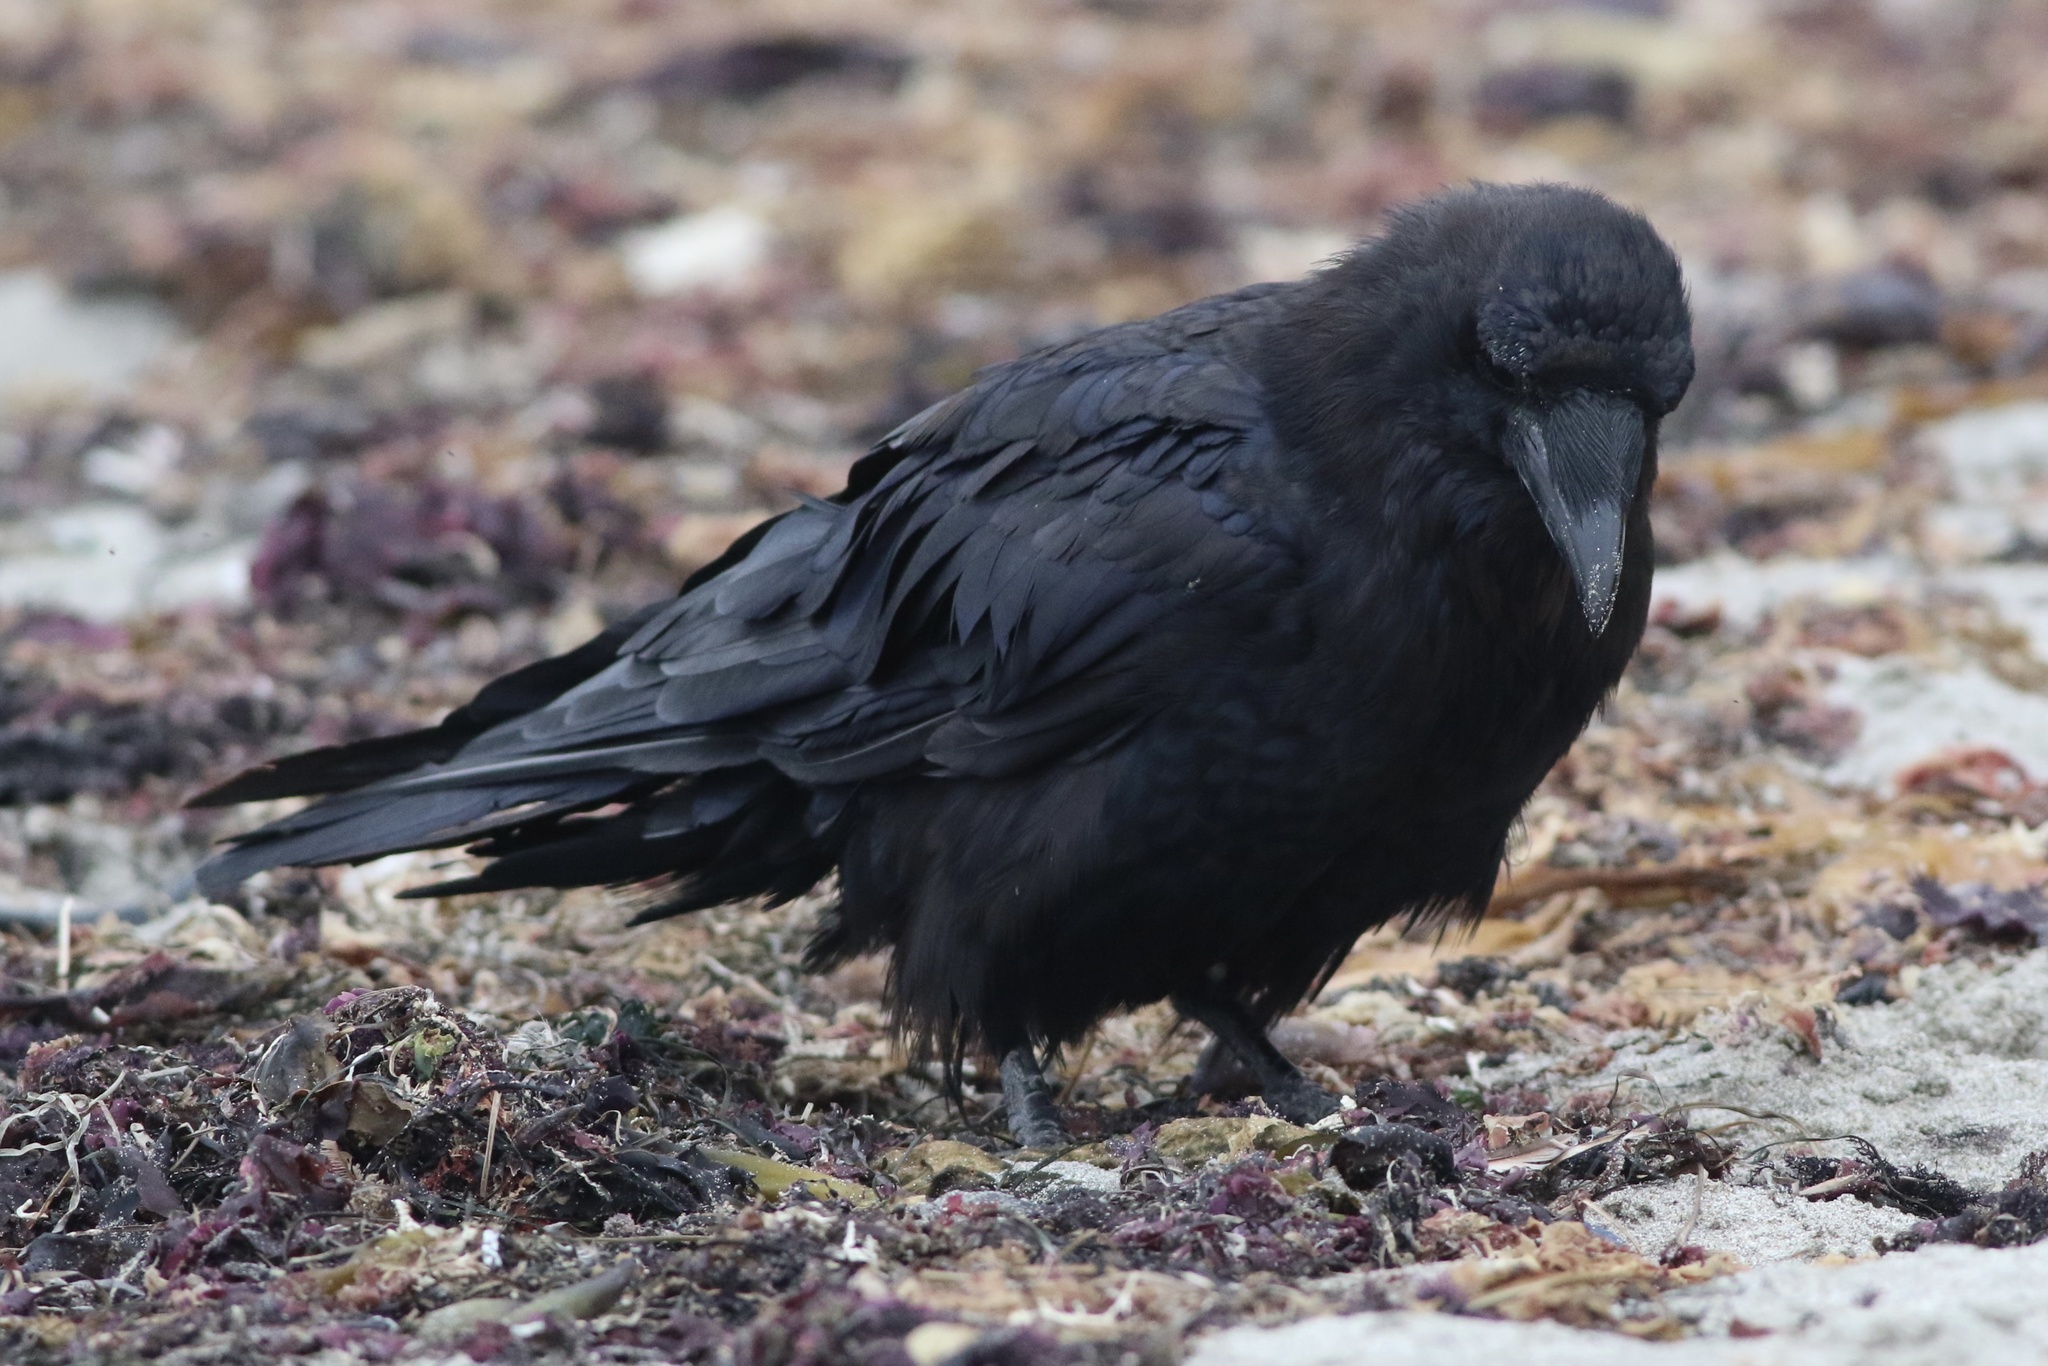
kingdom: Animalia
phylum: Chordata
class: Aves
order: Passeriformes
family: Corvidae
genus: Corvus
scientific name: Corvus corax
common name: Common raven
